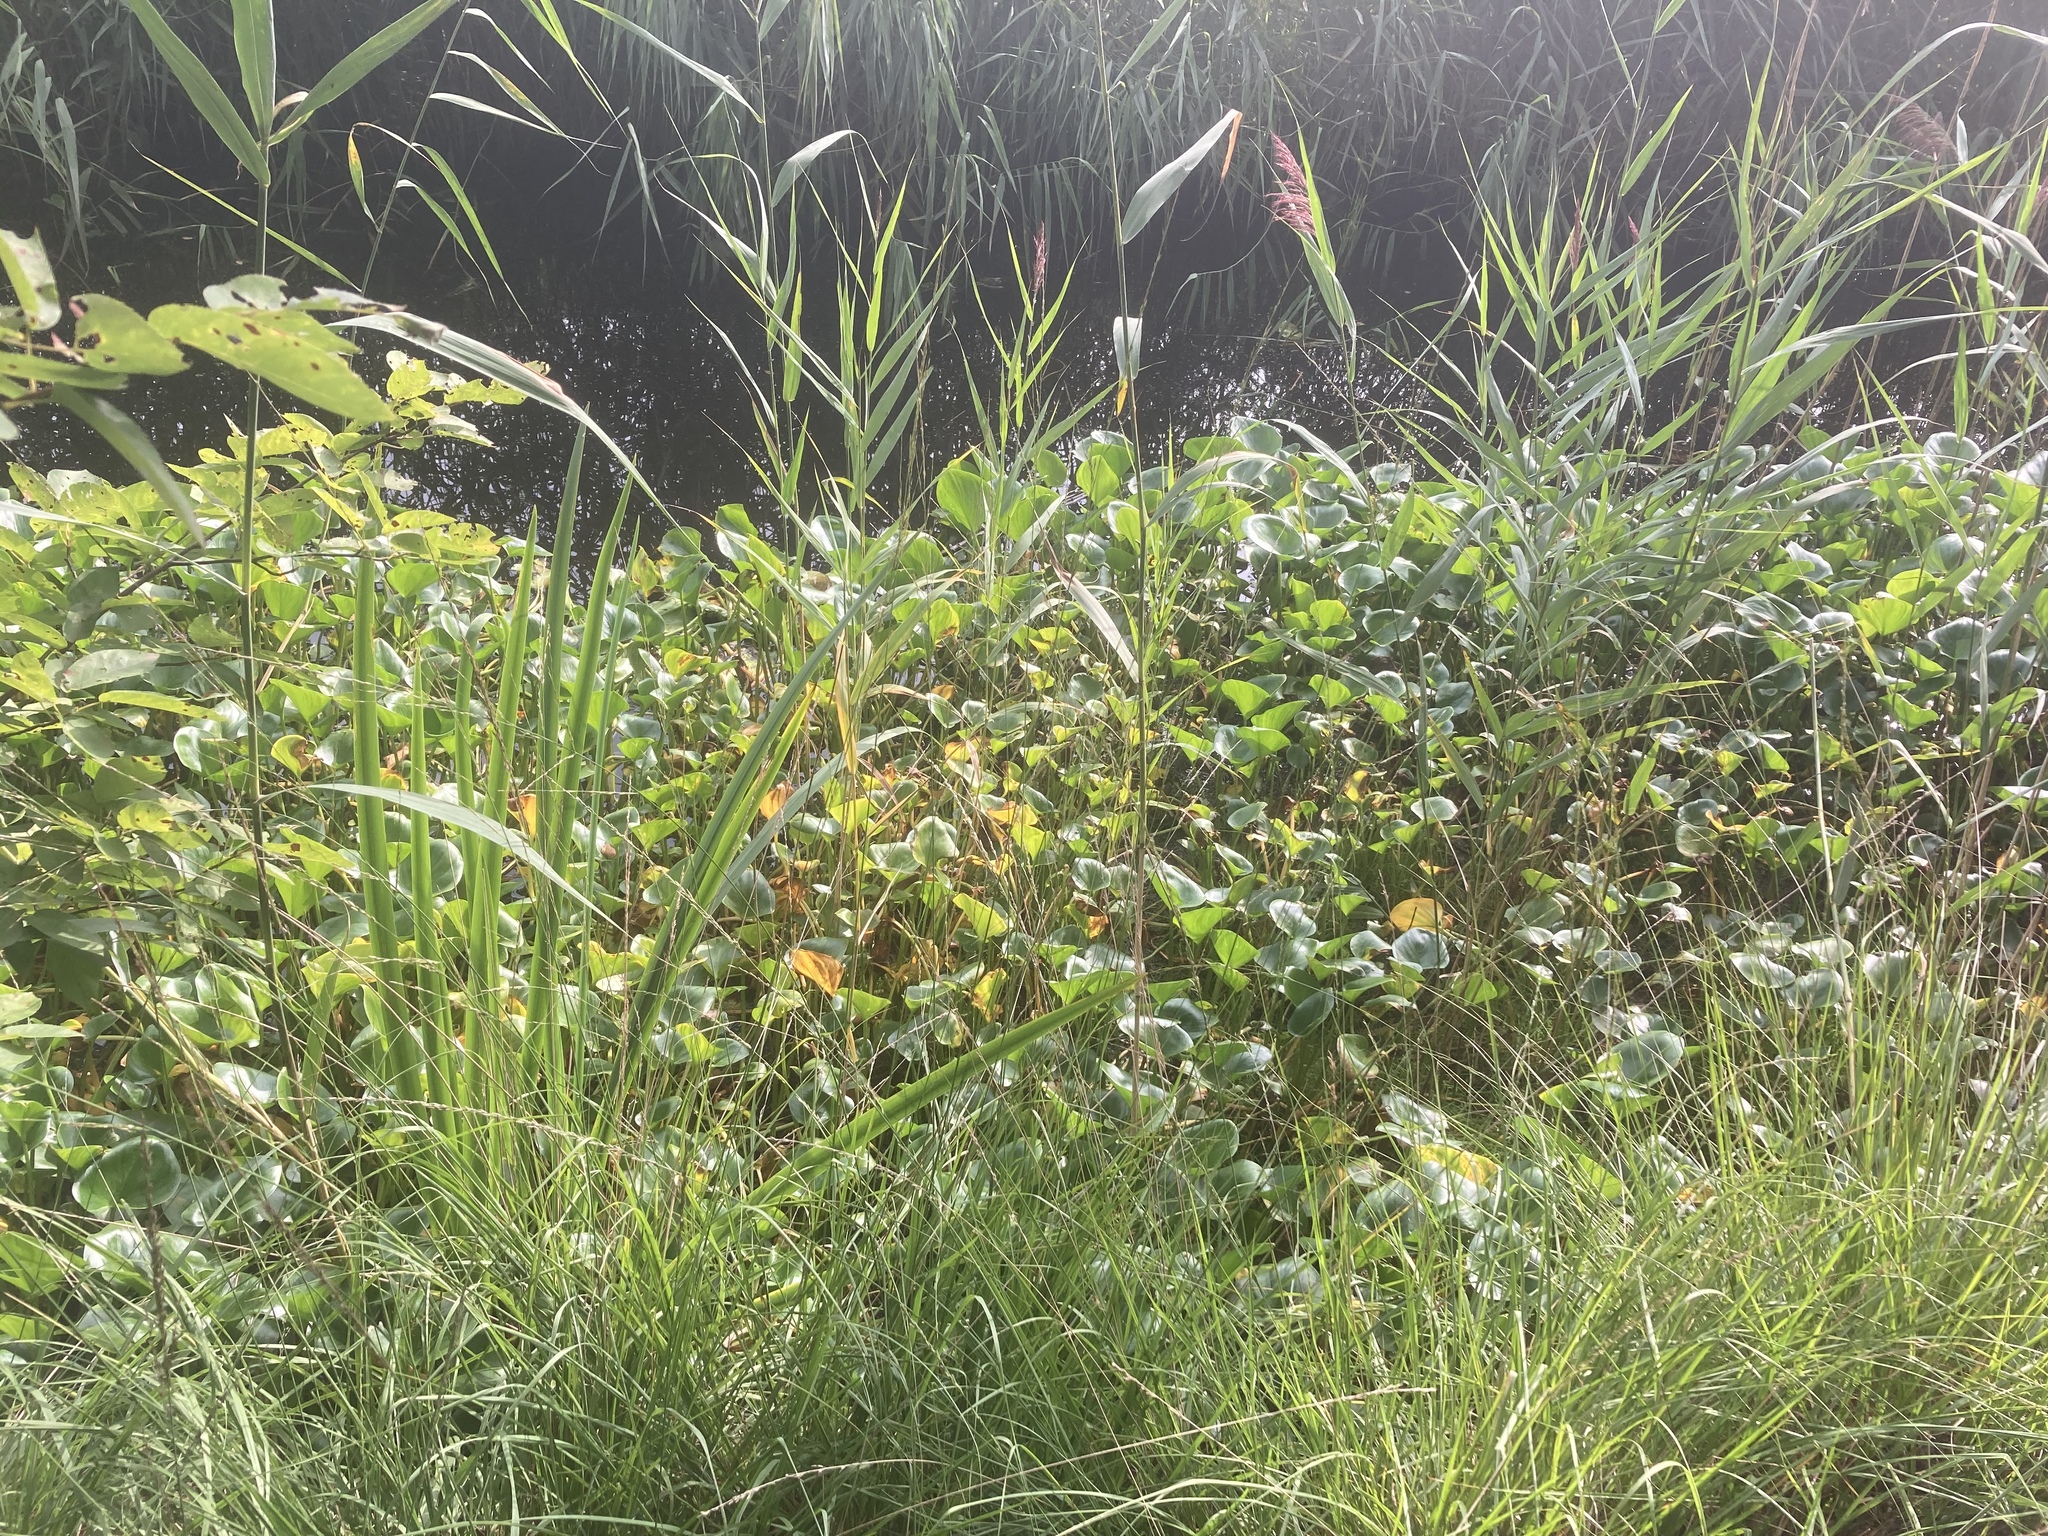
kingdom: Plantae
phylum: Tracheophyta
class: Liliopsida
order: Alismatales
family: Araceae
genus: Calla
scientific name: Calla palustris
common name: Bog arum
